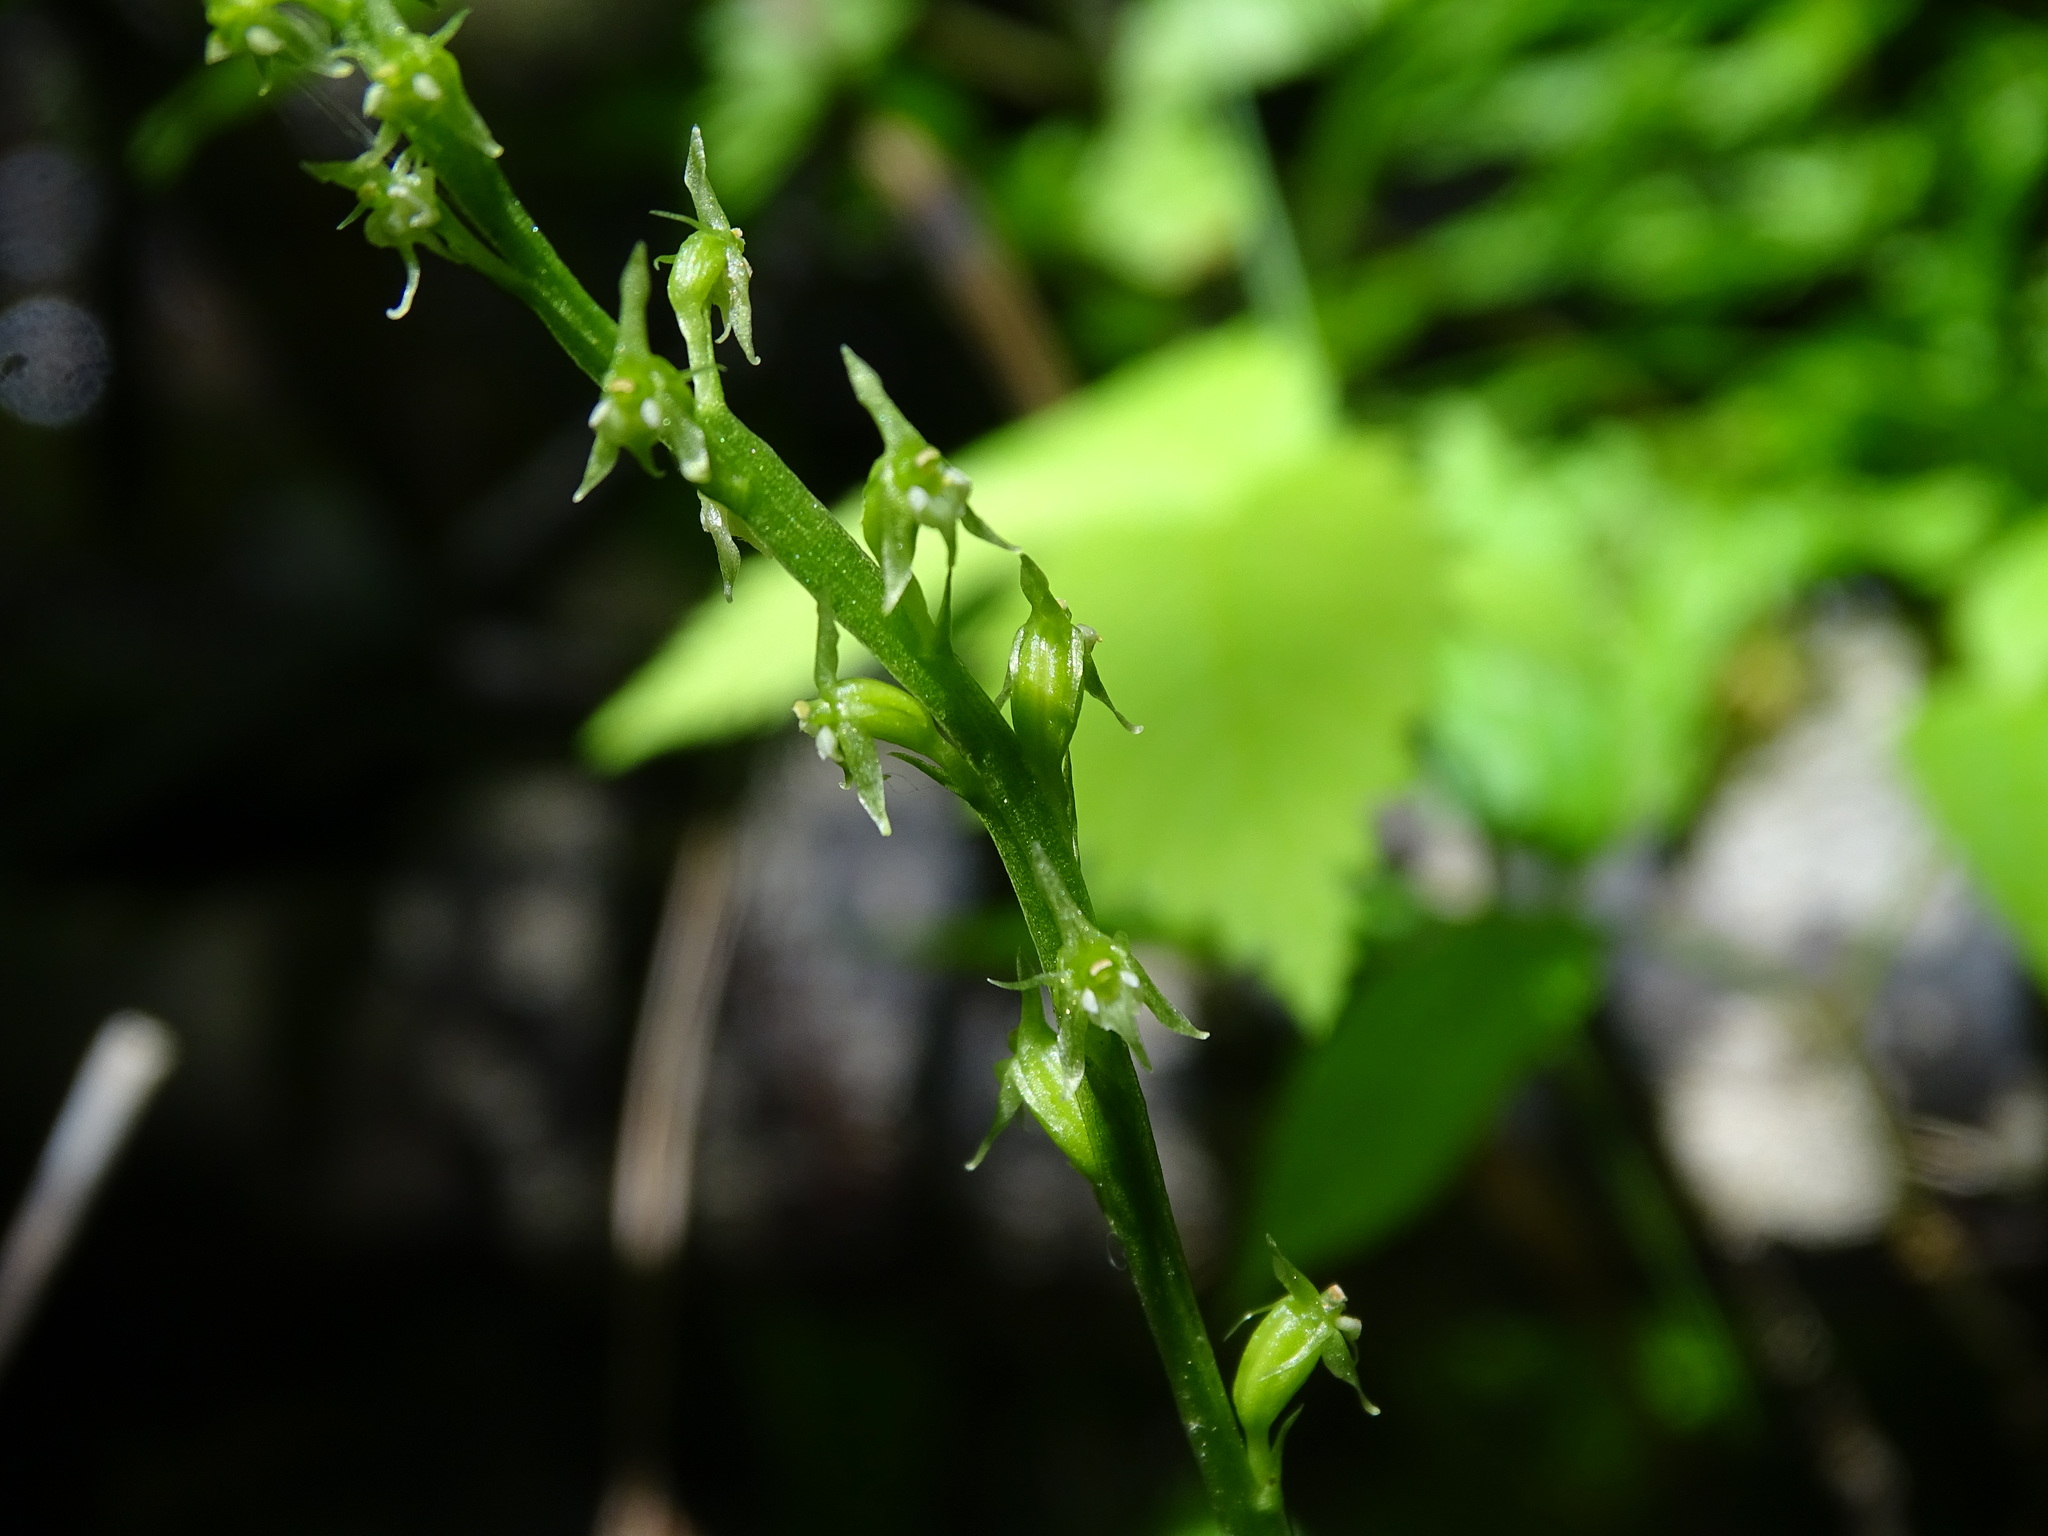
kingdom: Plantae
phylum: Tracheophyta
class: Liliopsida
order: Asparagales
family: Orchidaceae
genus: Malaxis
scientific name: Malaxis monophyllos
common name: White adder's-mouth
